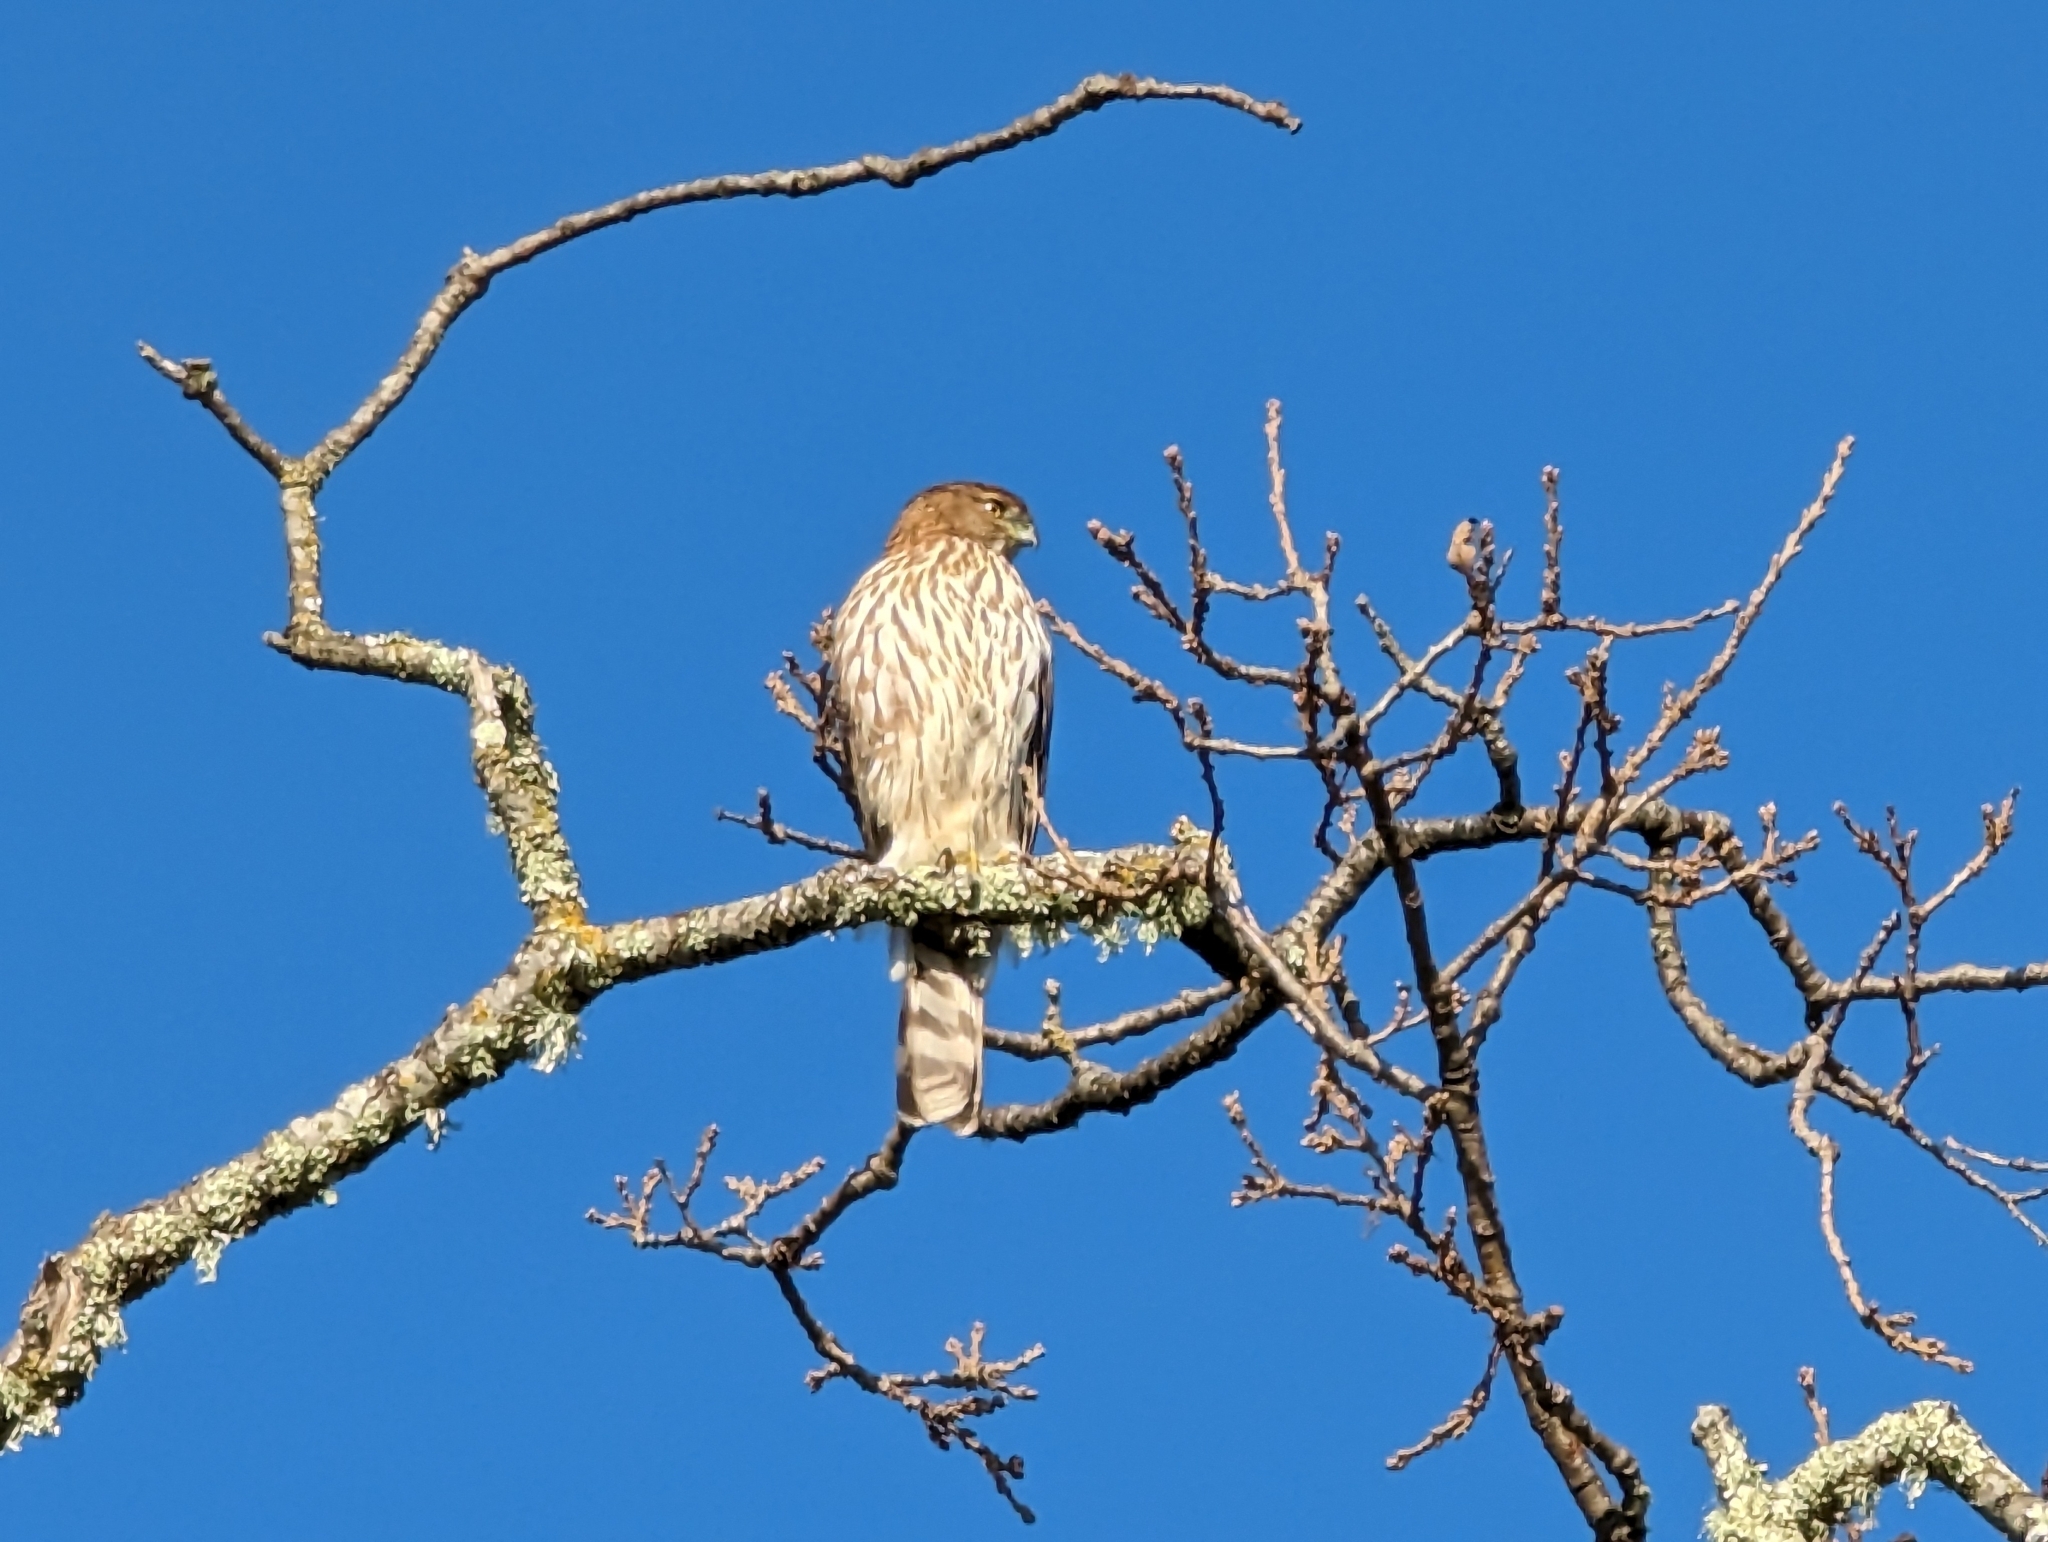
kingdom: Animalia
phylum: Chordata
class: Aves
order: Accipitriformes
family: Accipitridae
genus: Accipiter
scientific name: Accipiter cooperii
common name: Cooper's hawk
